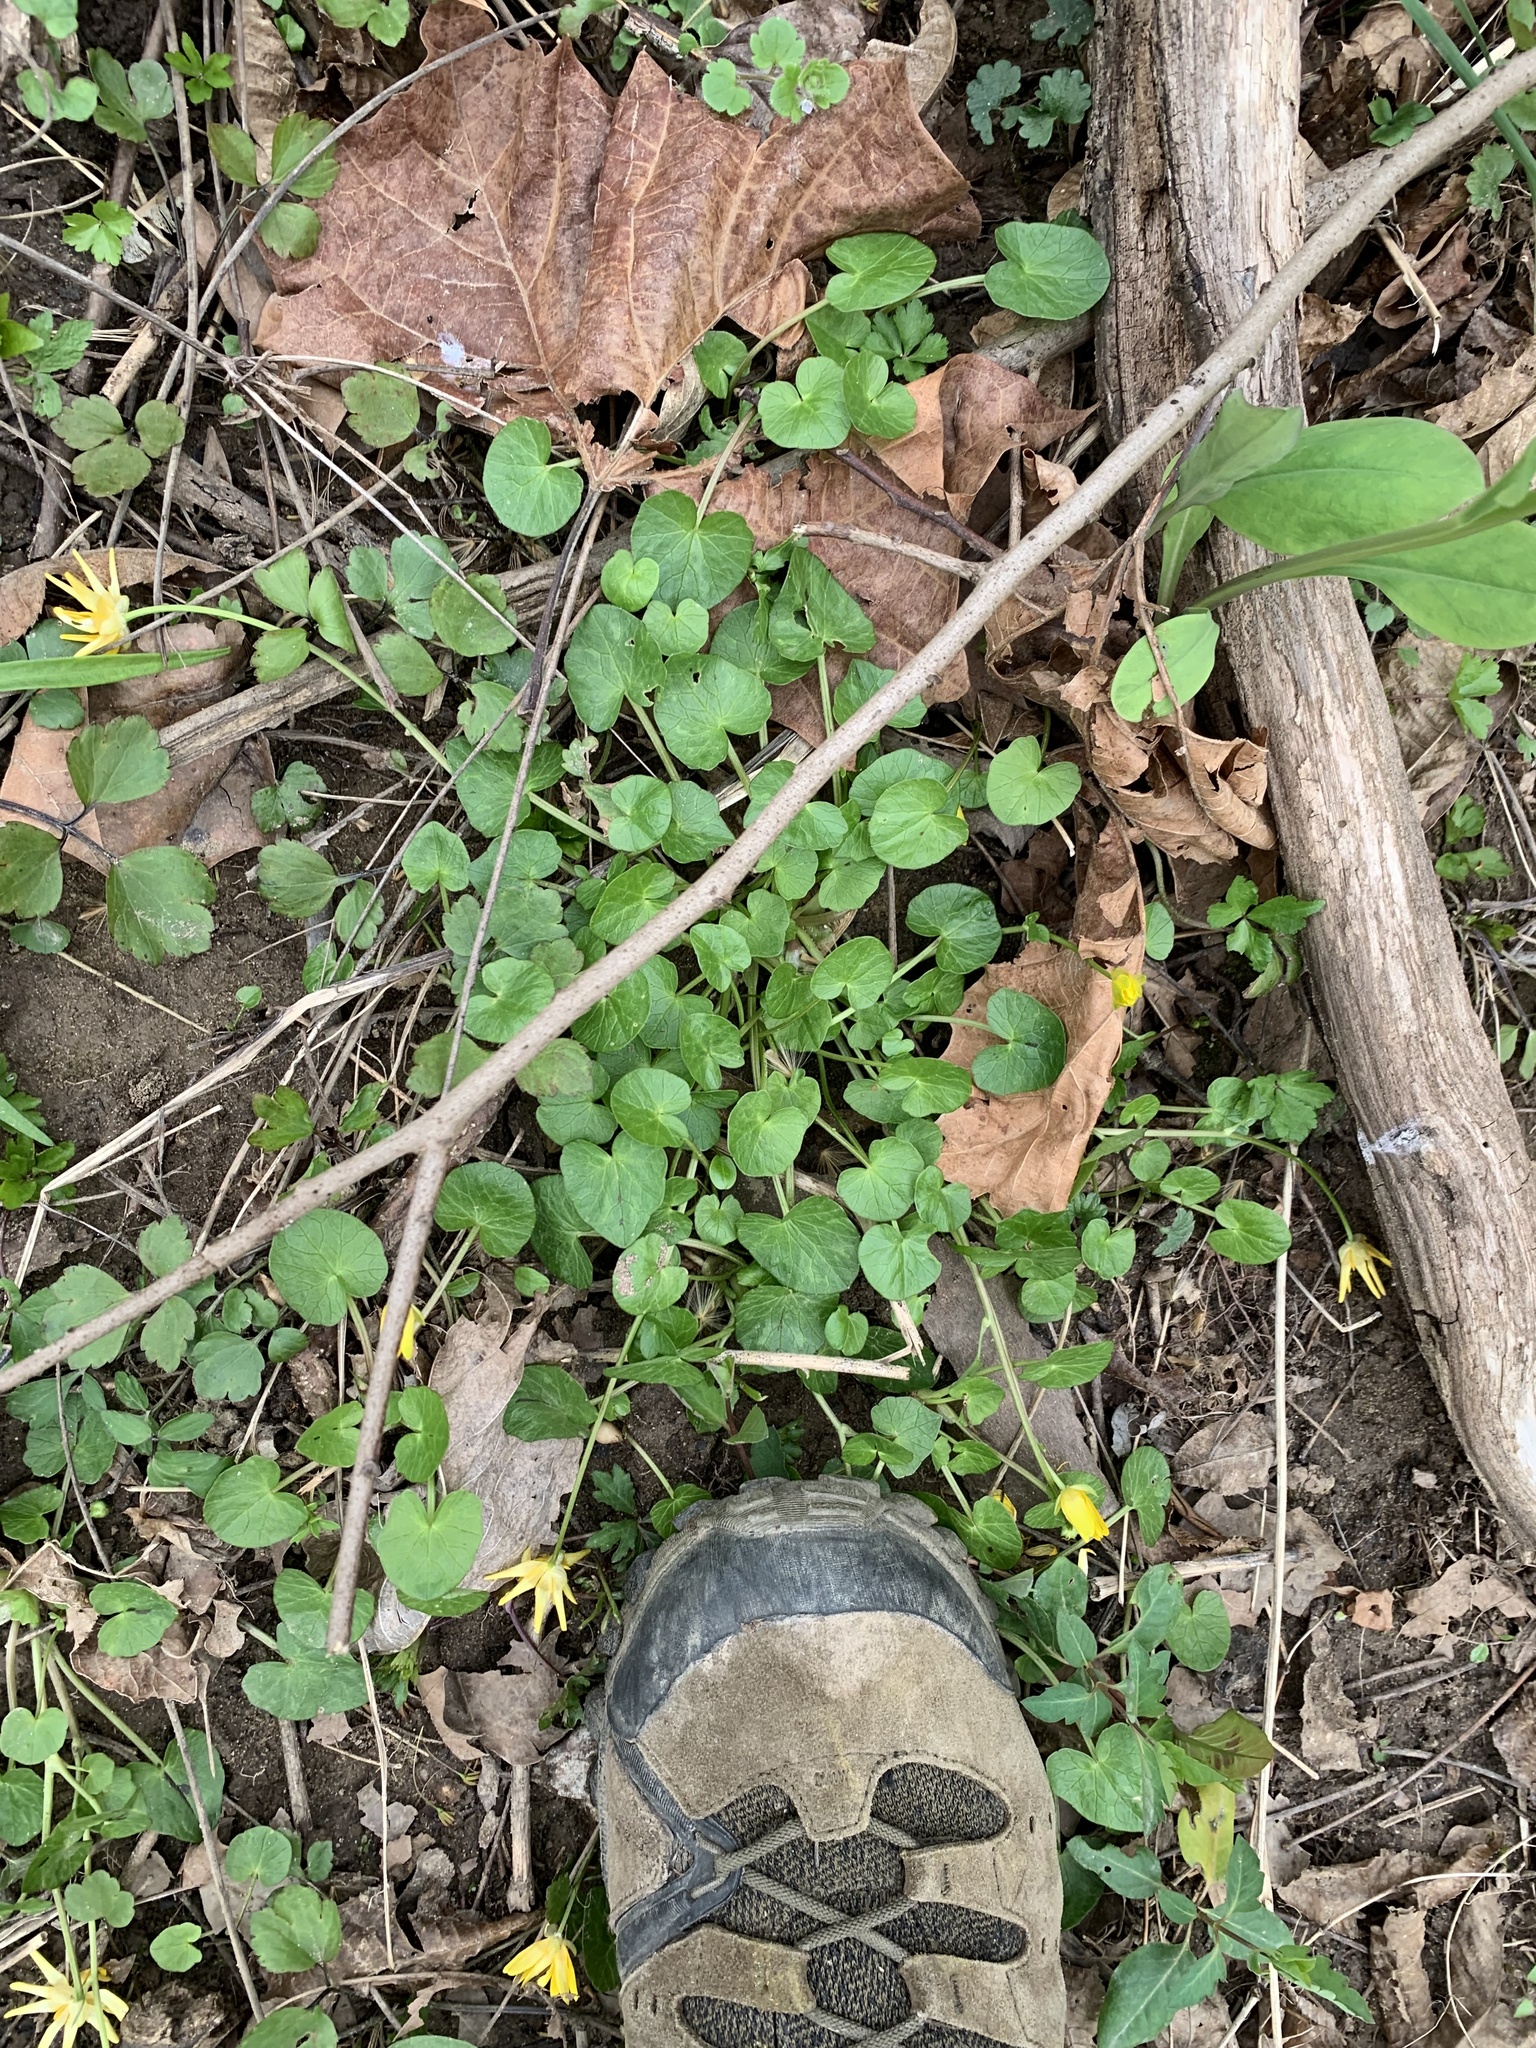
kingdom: Plantae
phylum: Tracheophyta
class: Magnoliopsida
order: Ranunculales
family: Ranunculaceae
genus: Ficaria
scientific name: Ficaria verna
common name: Lesser celandine
